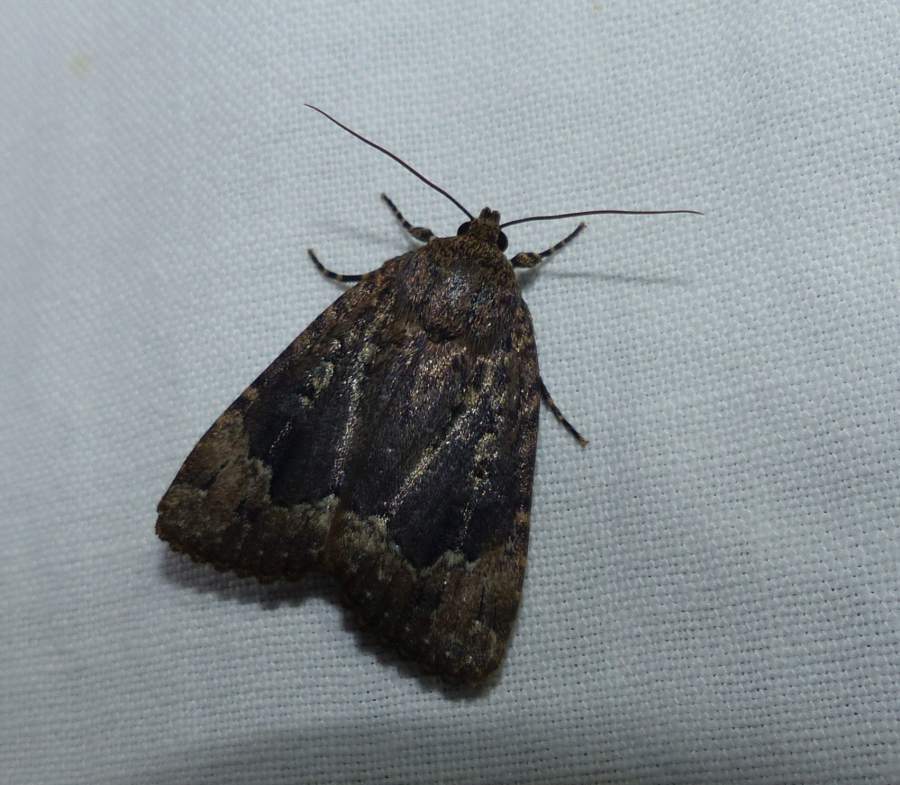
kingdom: Animalia
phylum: Arthropoda
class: Insecta
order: Lepidoptera
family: Noctuidae
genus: Amphipyra
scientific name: Amphipyra pyramidoides
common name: American copper underwing
